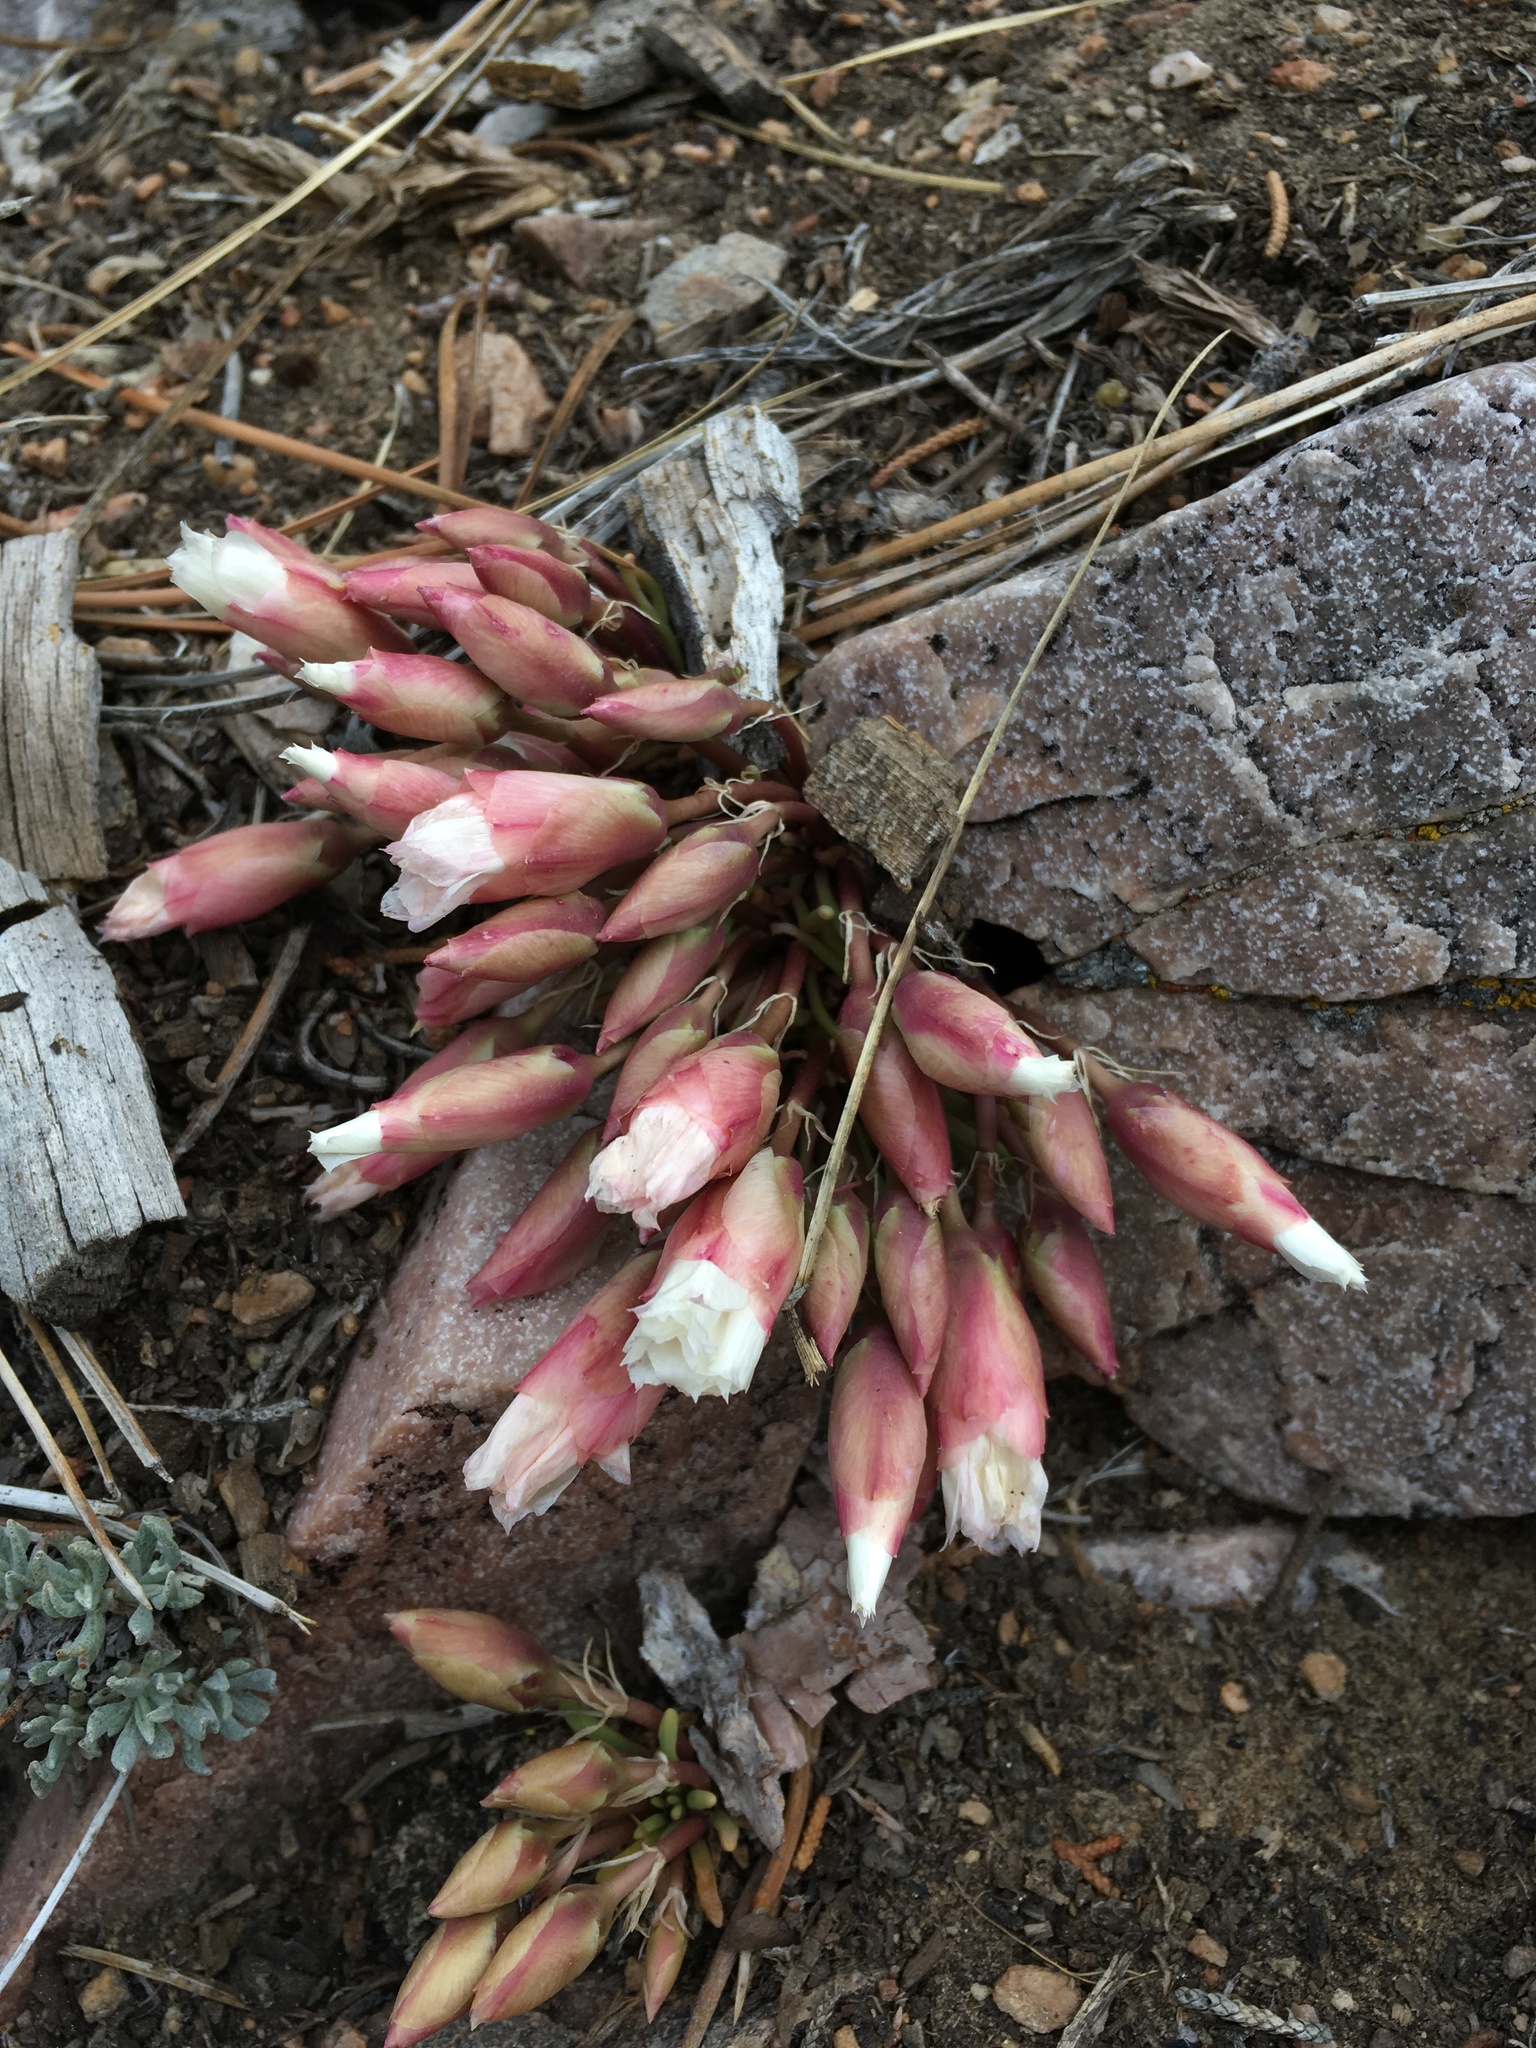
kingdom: Plantae
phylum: Tracheophyta
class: Magnoliopsida
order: Caryophyllales
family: Montiaceae
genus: Lewisia
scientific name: Lewisia rediviva
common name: Bitter-root
